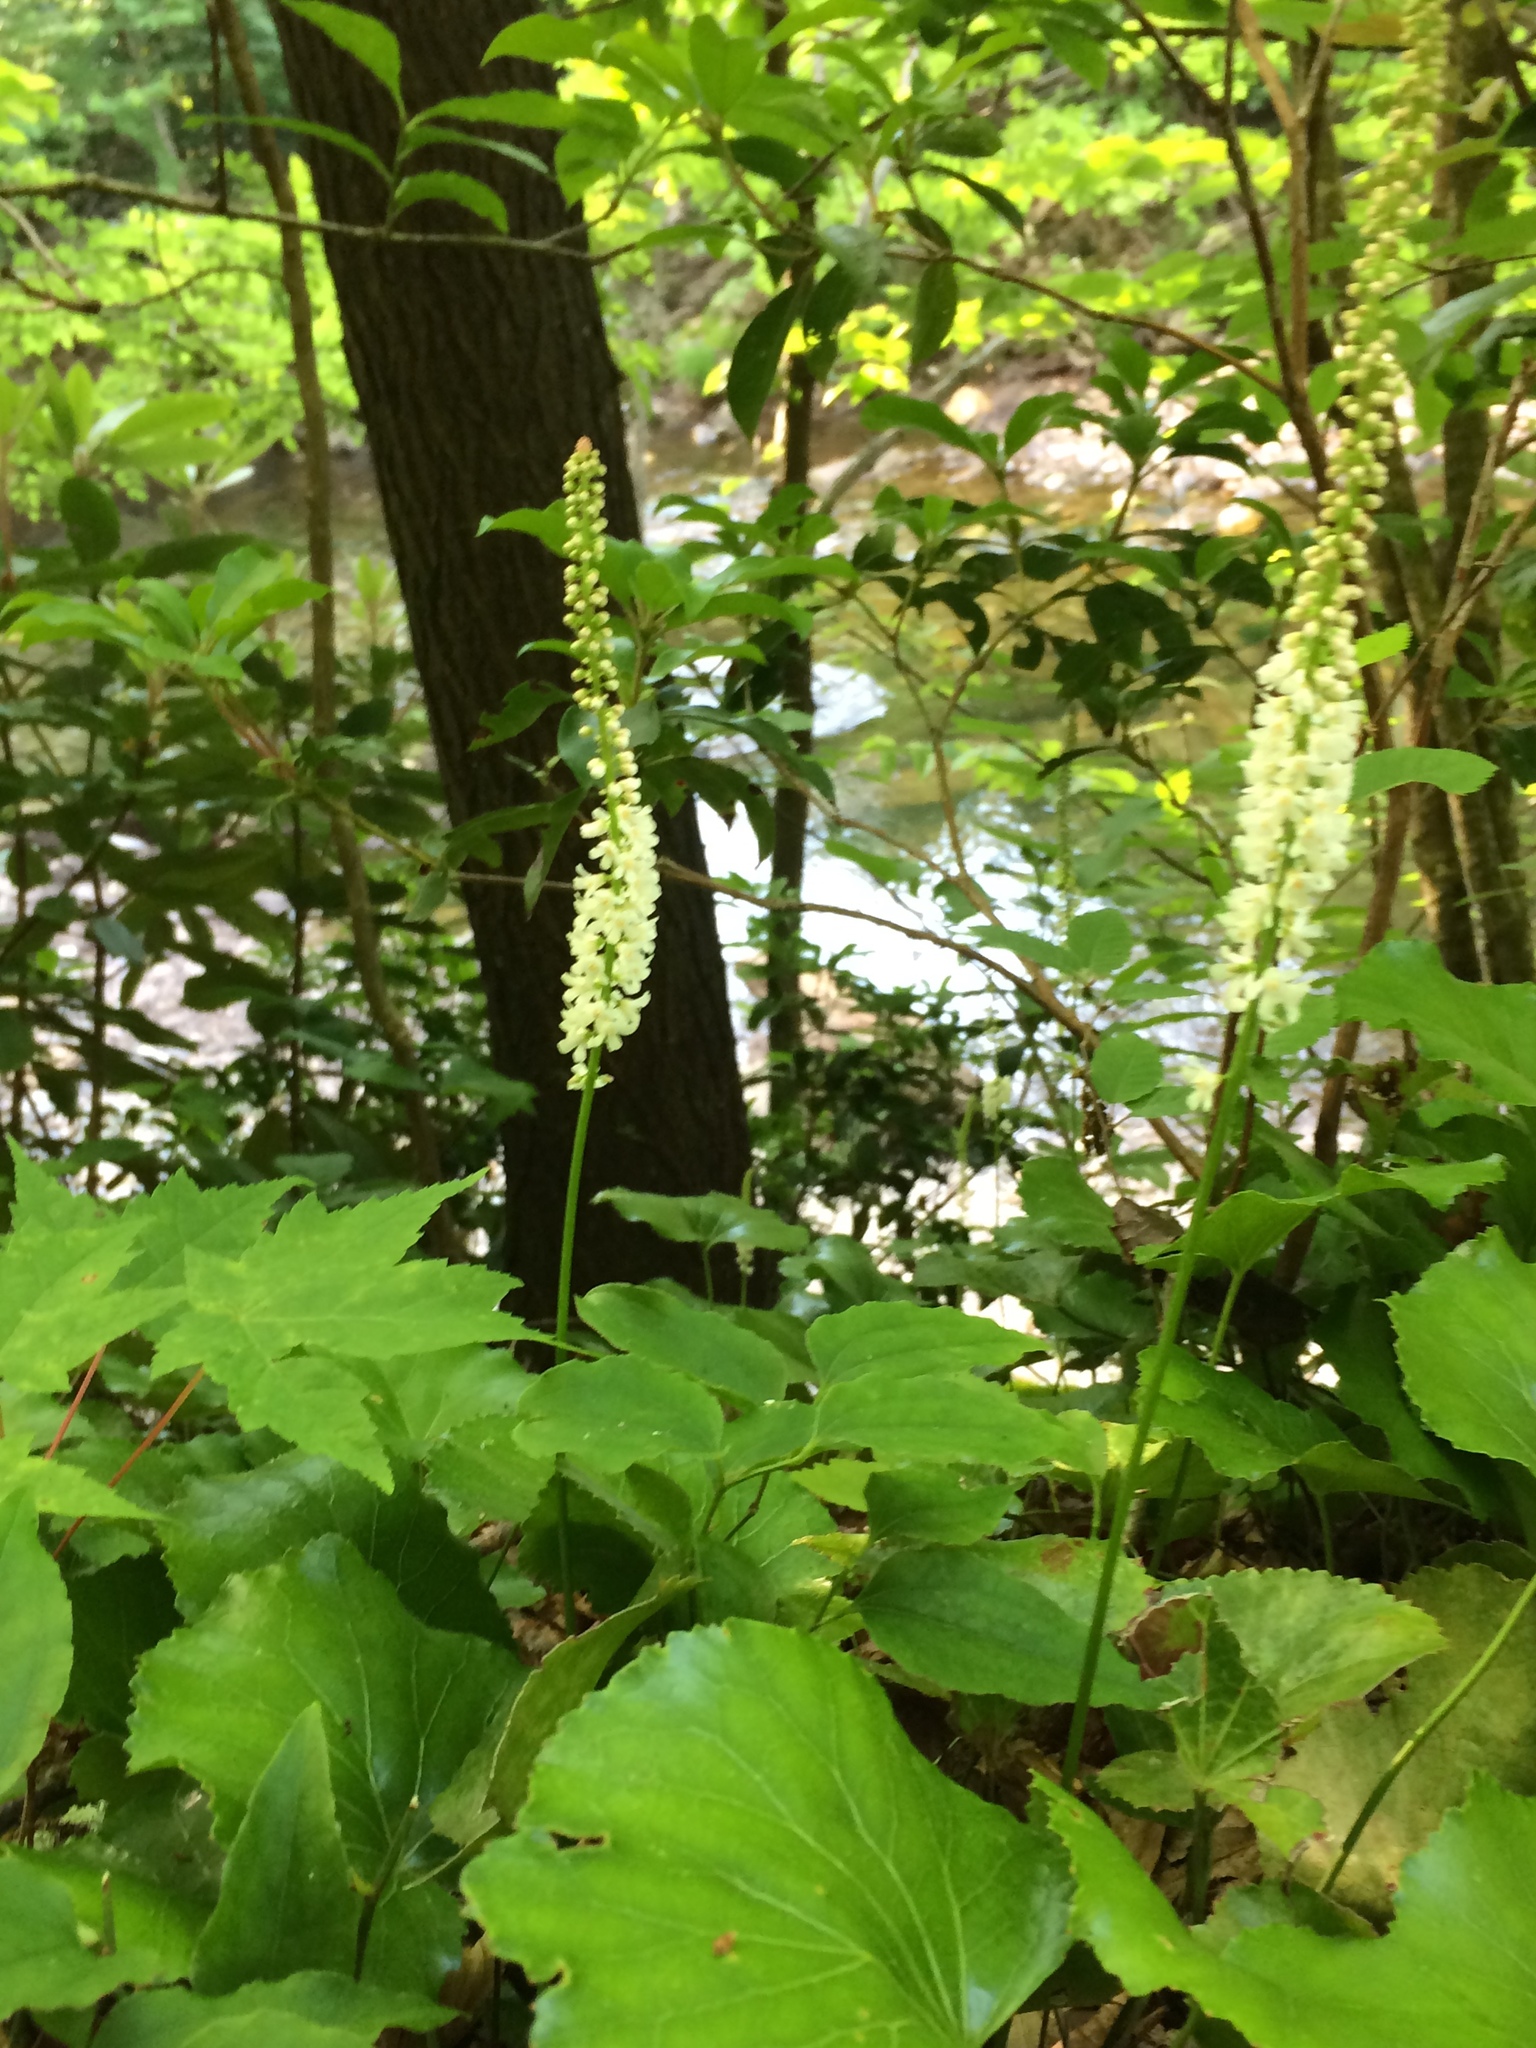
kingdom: Plantae
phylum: Tracheophyta
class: Magnoliopsida
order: Ericales
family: Diapensiaceae
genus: Galax
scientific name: Galax urceolata
